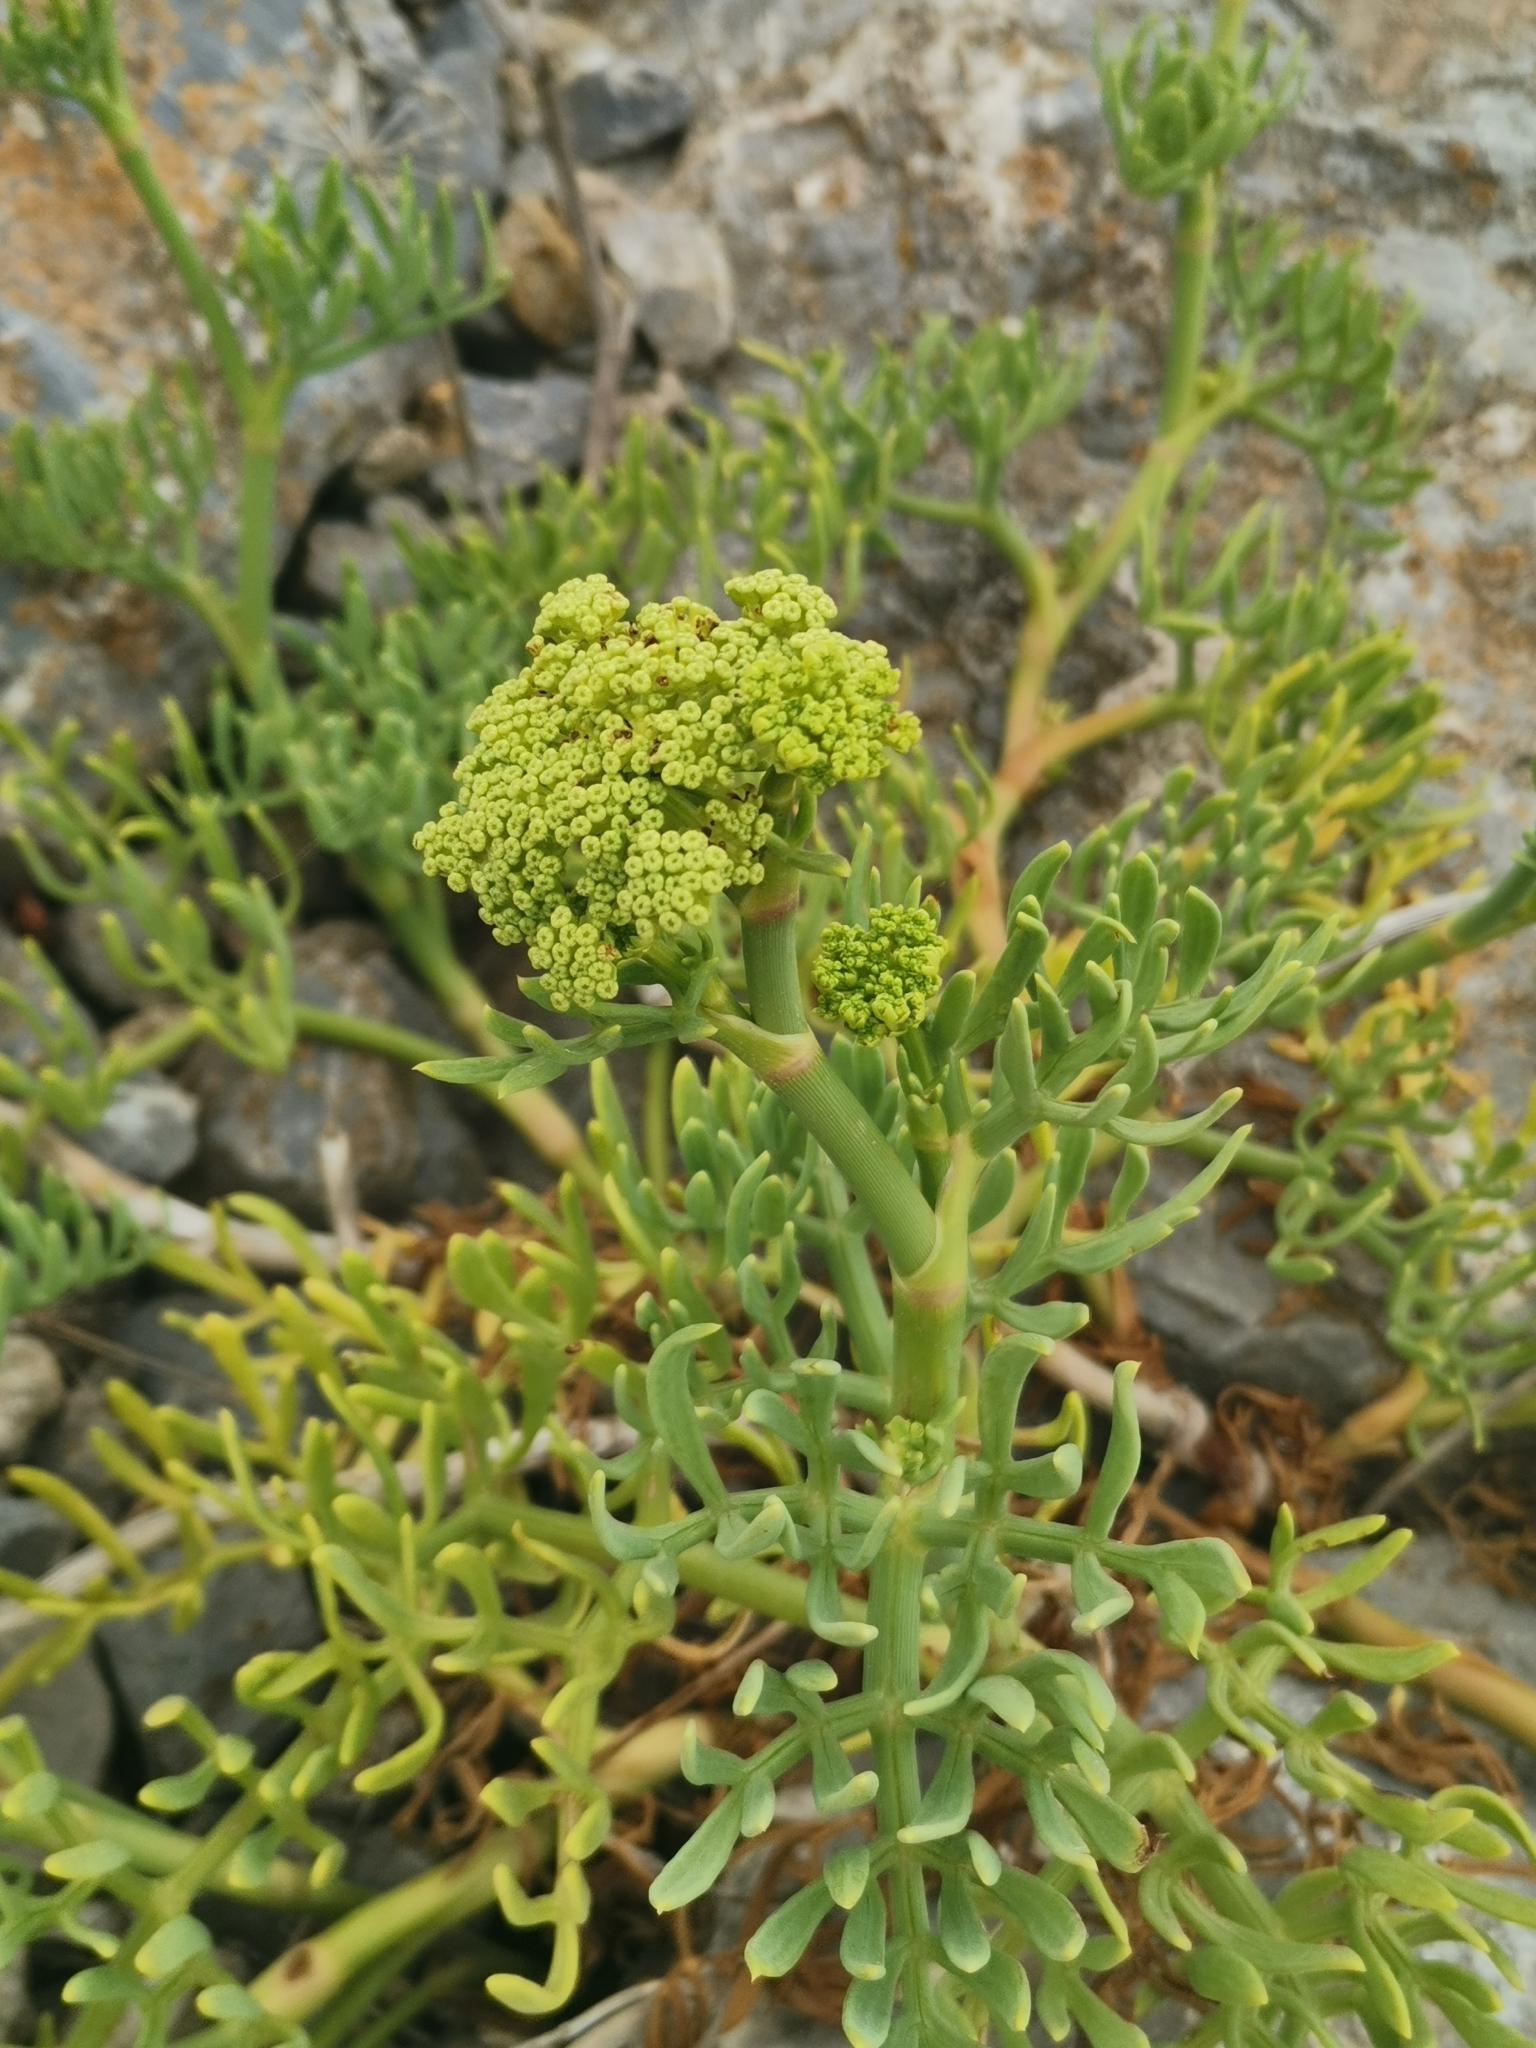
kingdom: Plantae
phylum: Tracheophyta
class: Magnoliopsida
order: Apiales
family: Apiaceae
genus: Crithmum
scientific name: Crithmum maritimum
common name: Rock samphire
